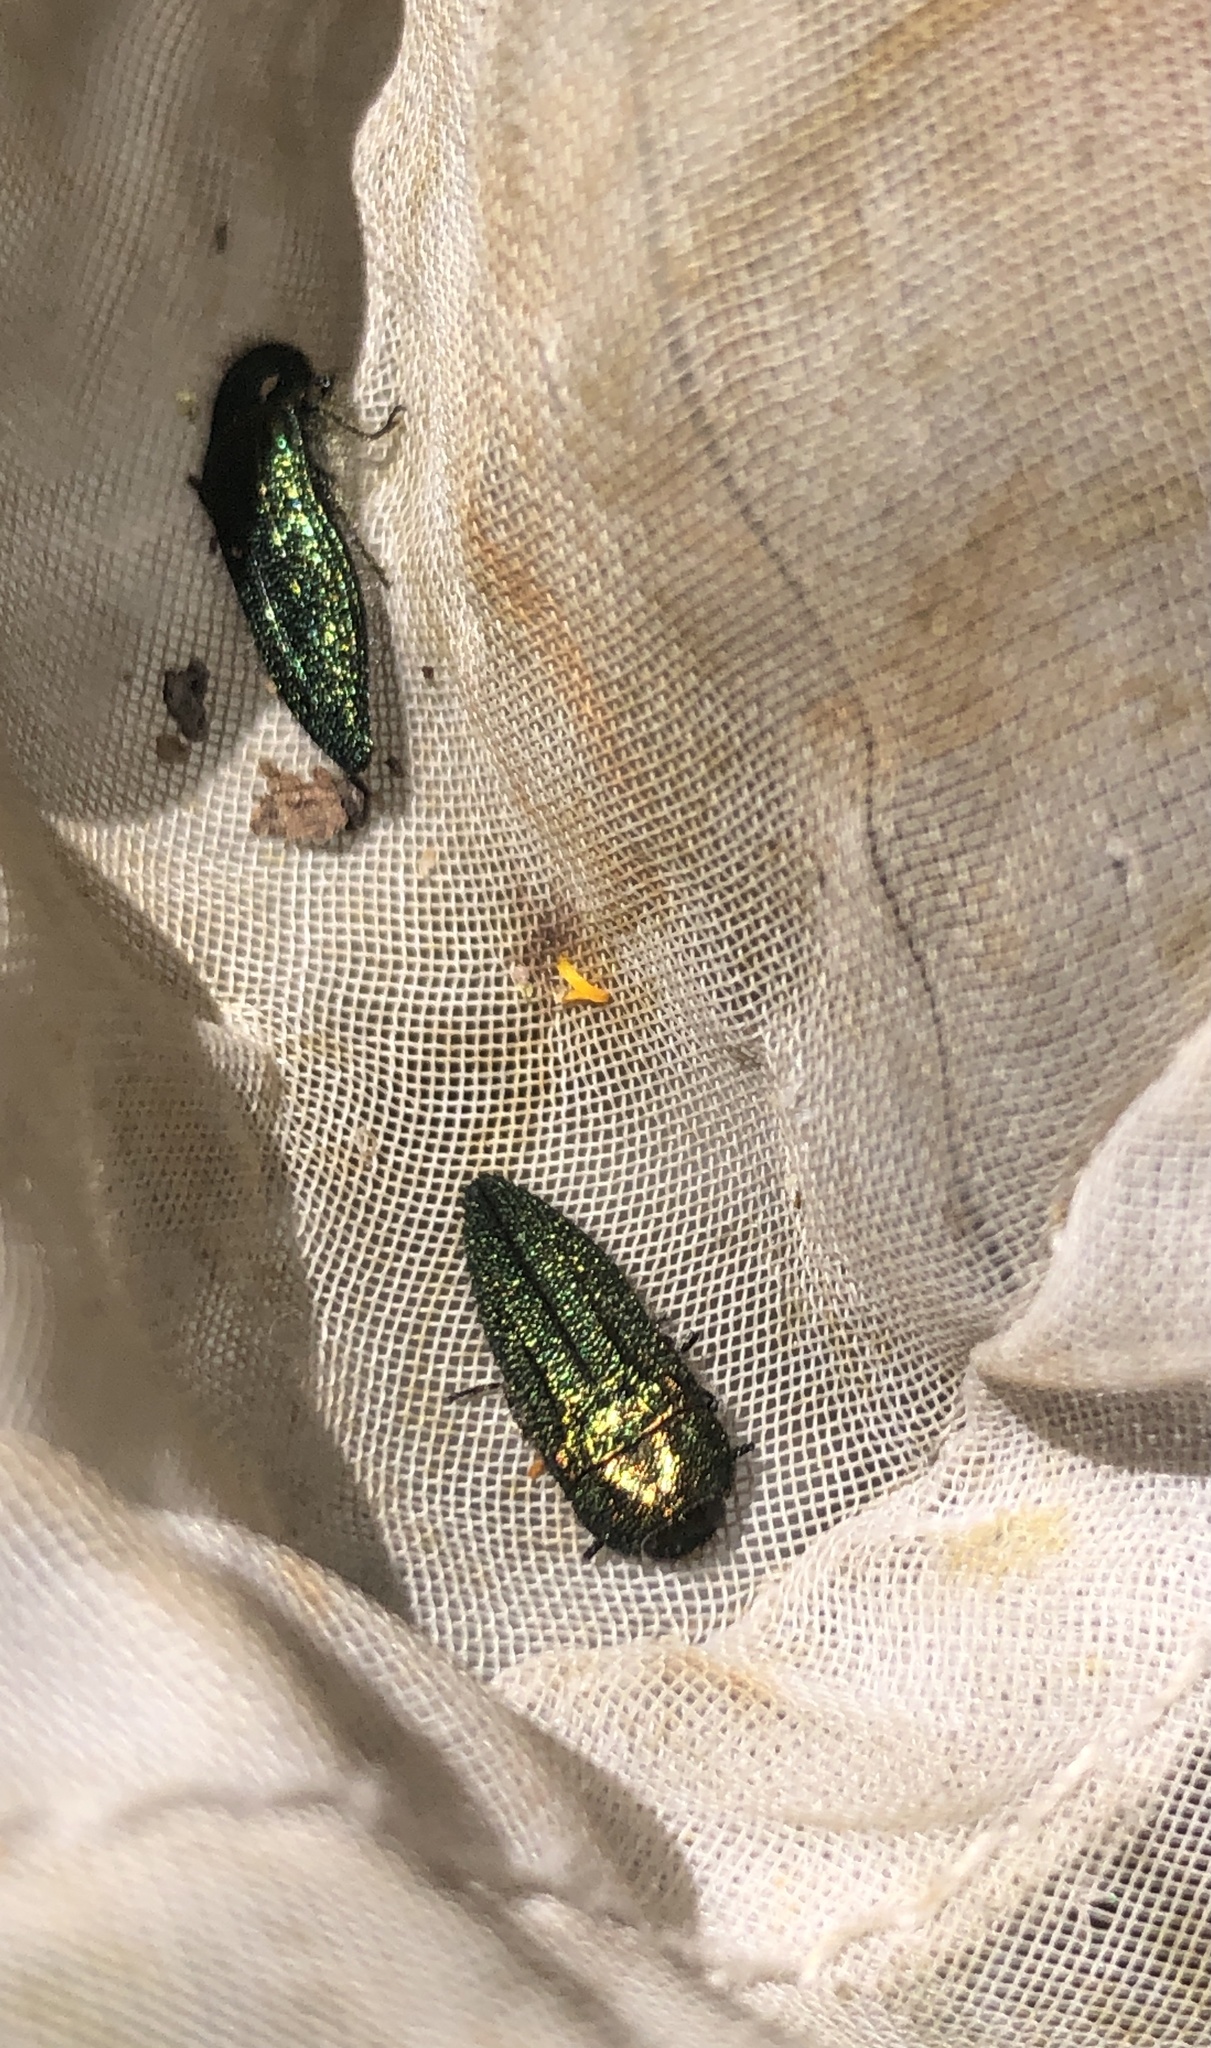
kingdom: Animalia
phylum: Arthropoda
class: Insecta
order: Coleoptera
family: Buprestidae
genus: Acmaeodera
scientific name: Acmaeodera resplendens
